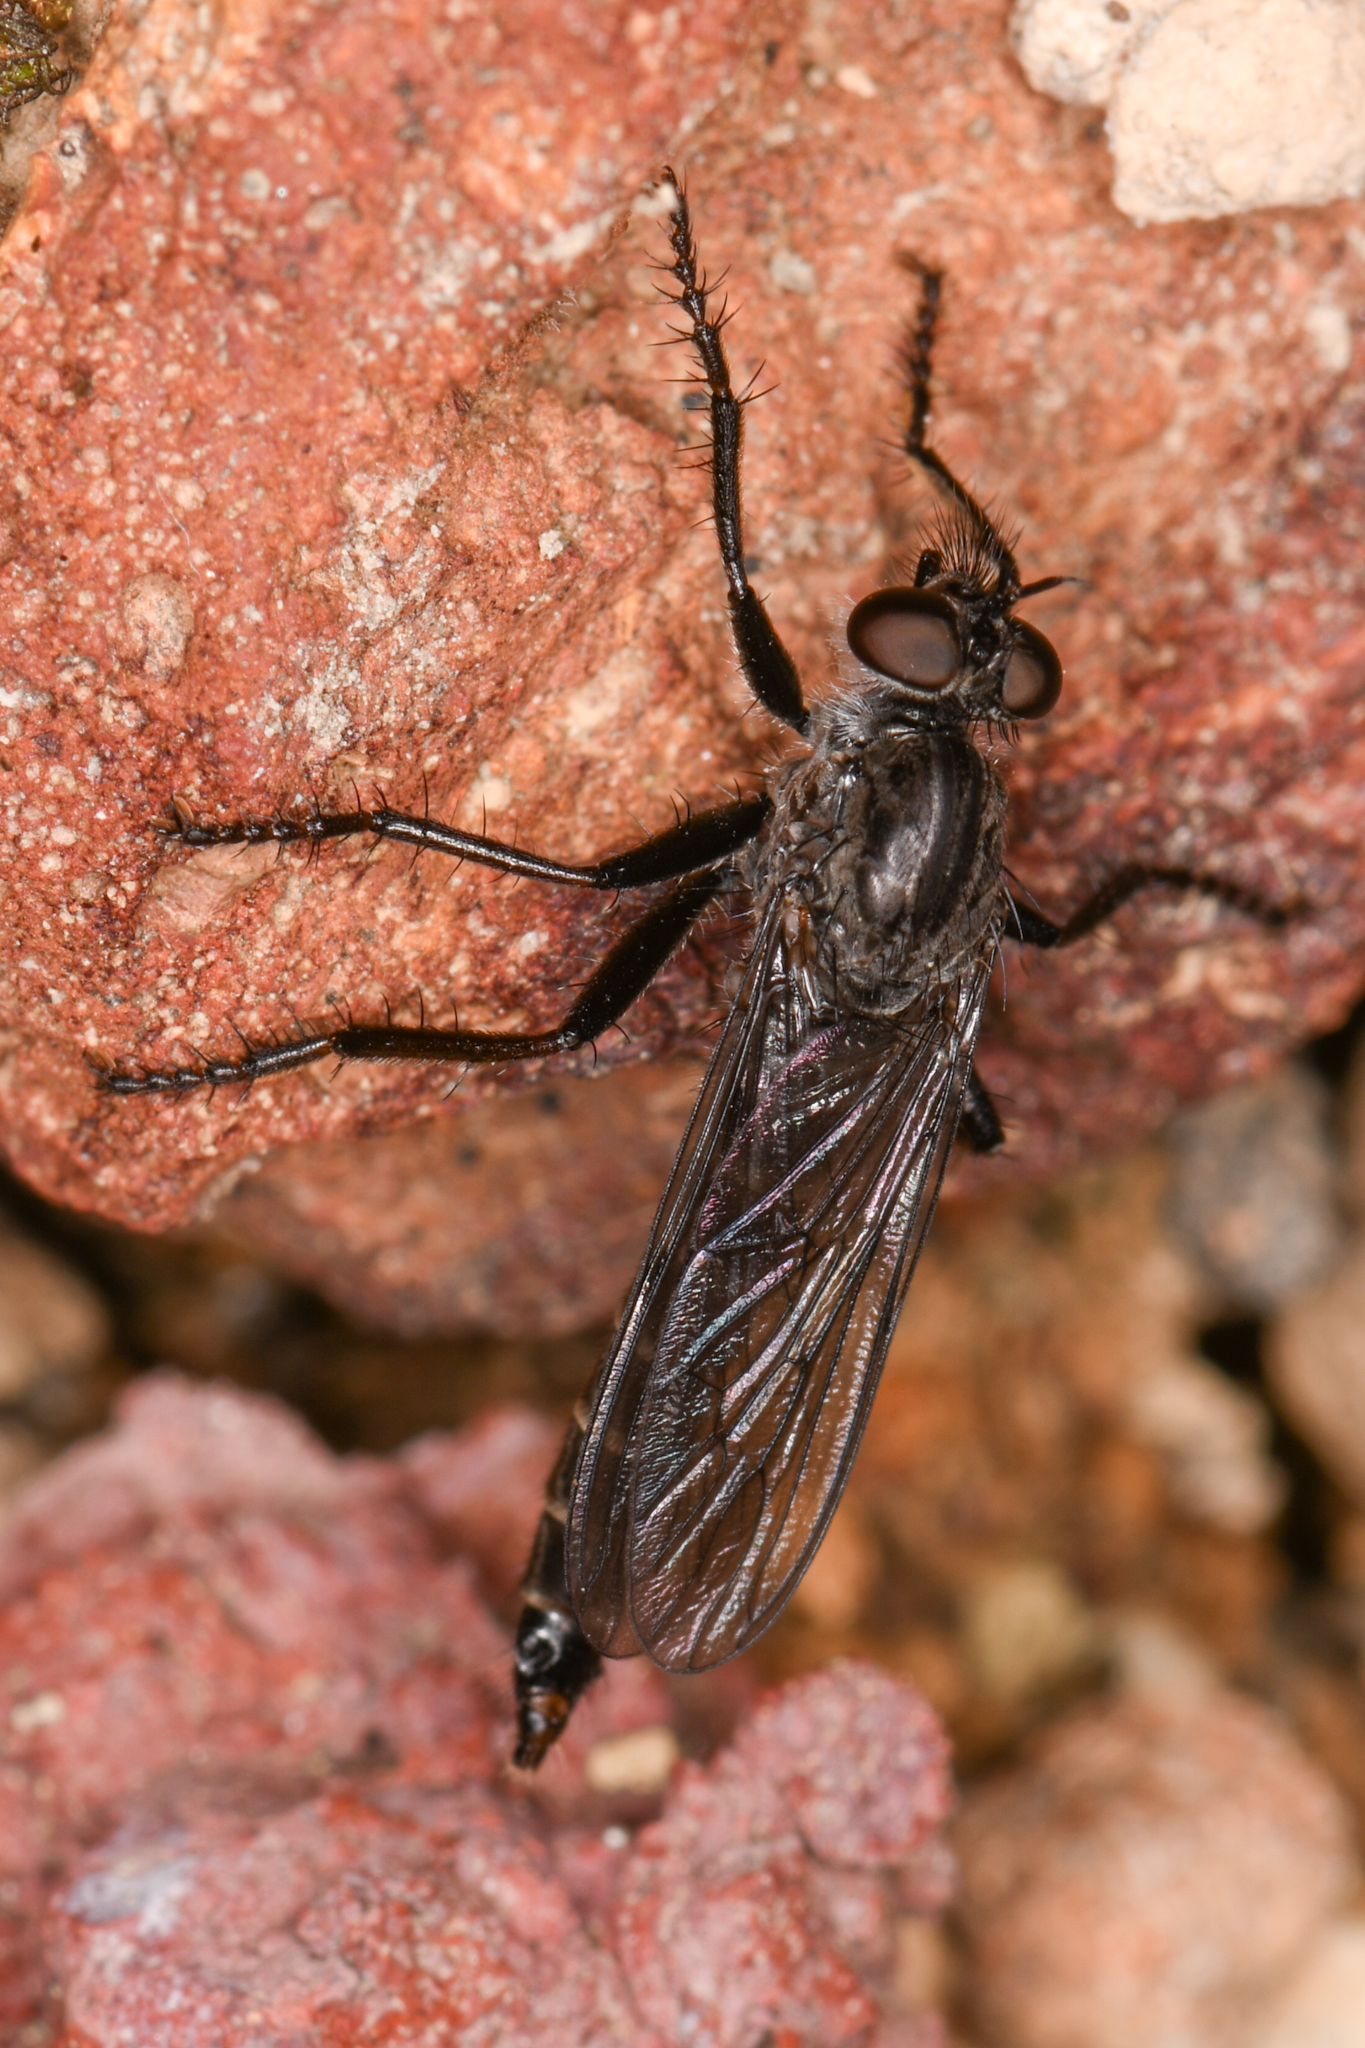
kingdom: Animalia
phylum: Arthropoda
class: Insecta
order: Diptera
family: Asilidae
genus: Rhadiurgus
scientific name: Rhadiurgus variabilis
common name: Northern robberfly
